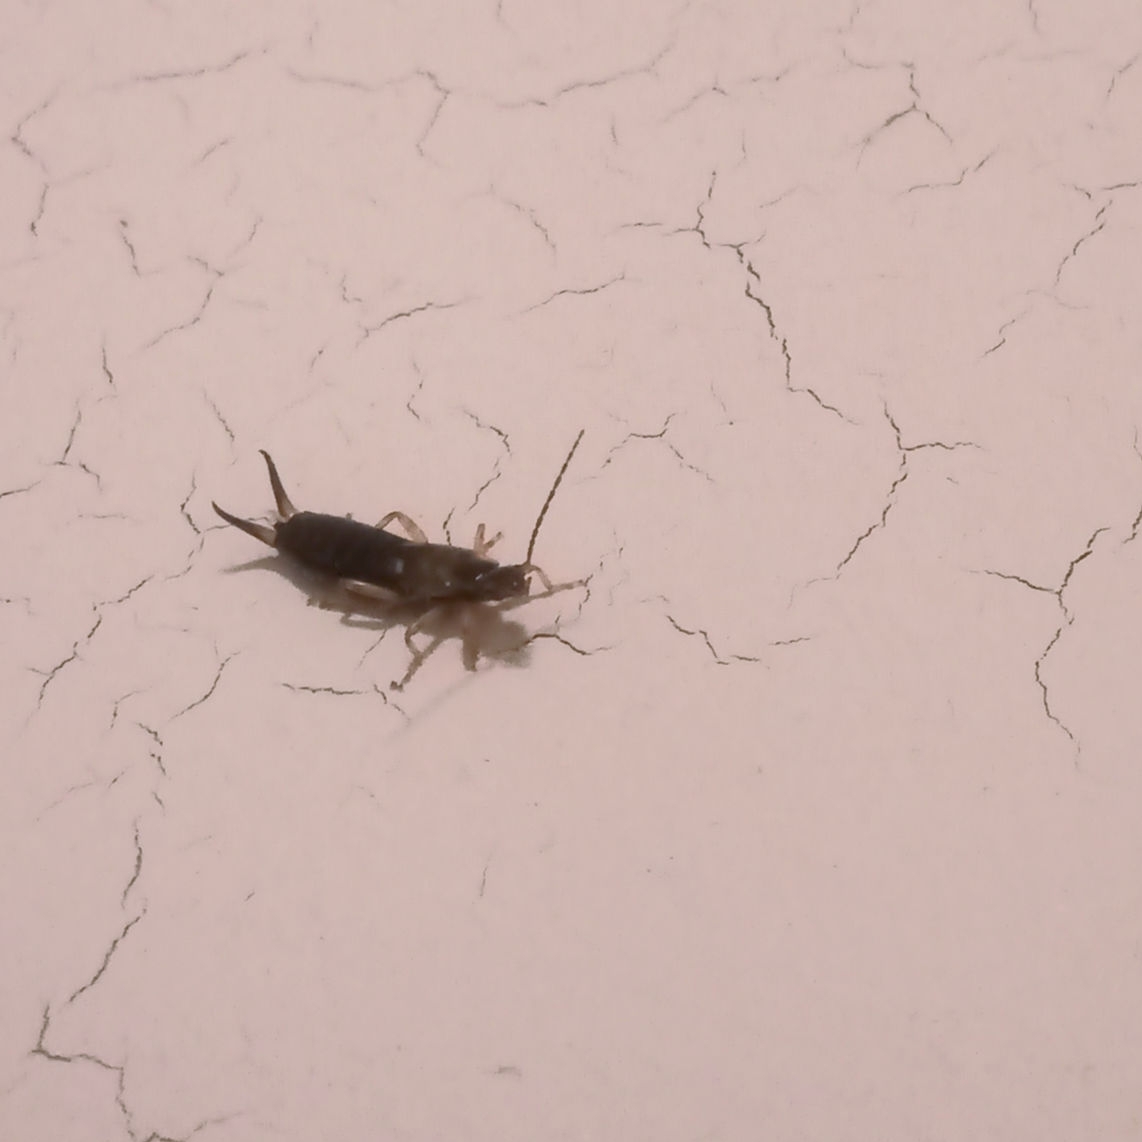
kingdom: Animalia
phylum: Arthropoda
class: Insecta
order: Dermaptera
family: Forficulidae
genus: Forficula
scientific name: Forficula
